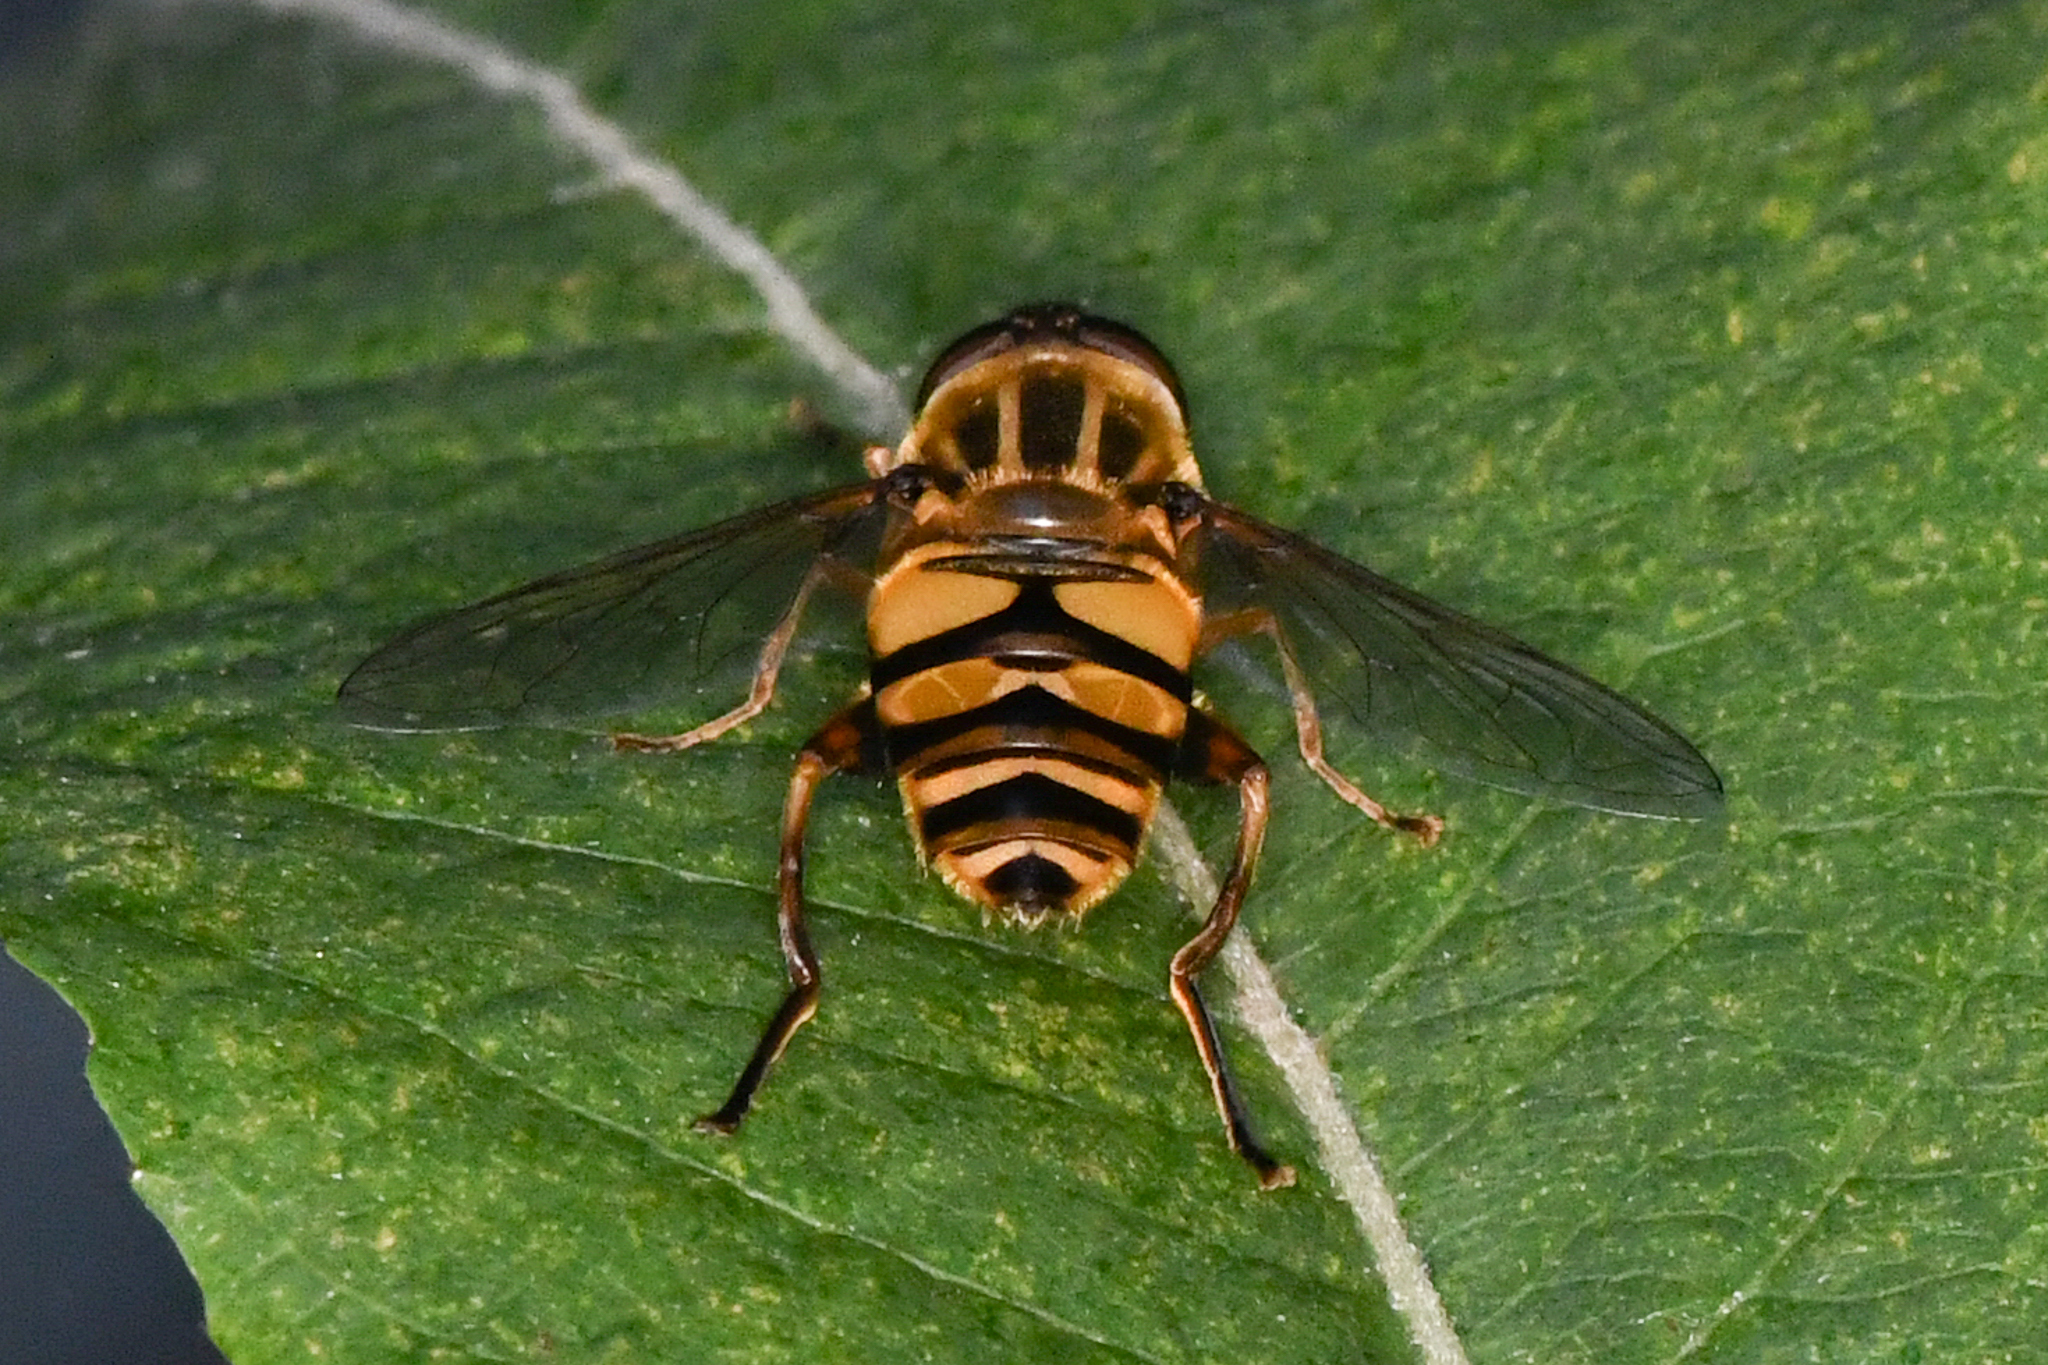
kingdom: Animalia
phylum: Arthropoda
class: Insecta
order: Diptera
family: Syrphidae
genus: Helophilus
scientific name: Helophilus fasciatus
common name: Narrow-headed marsh fly
